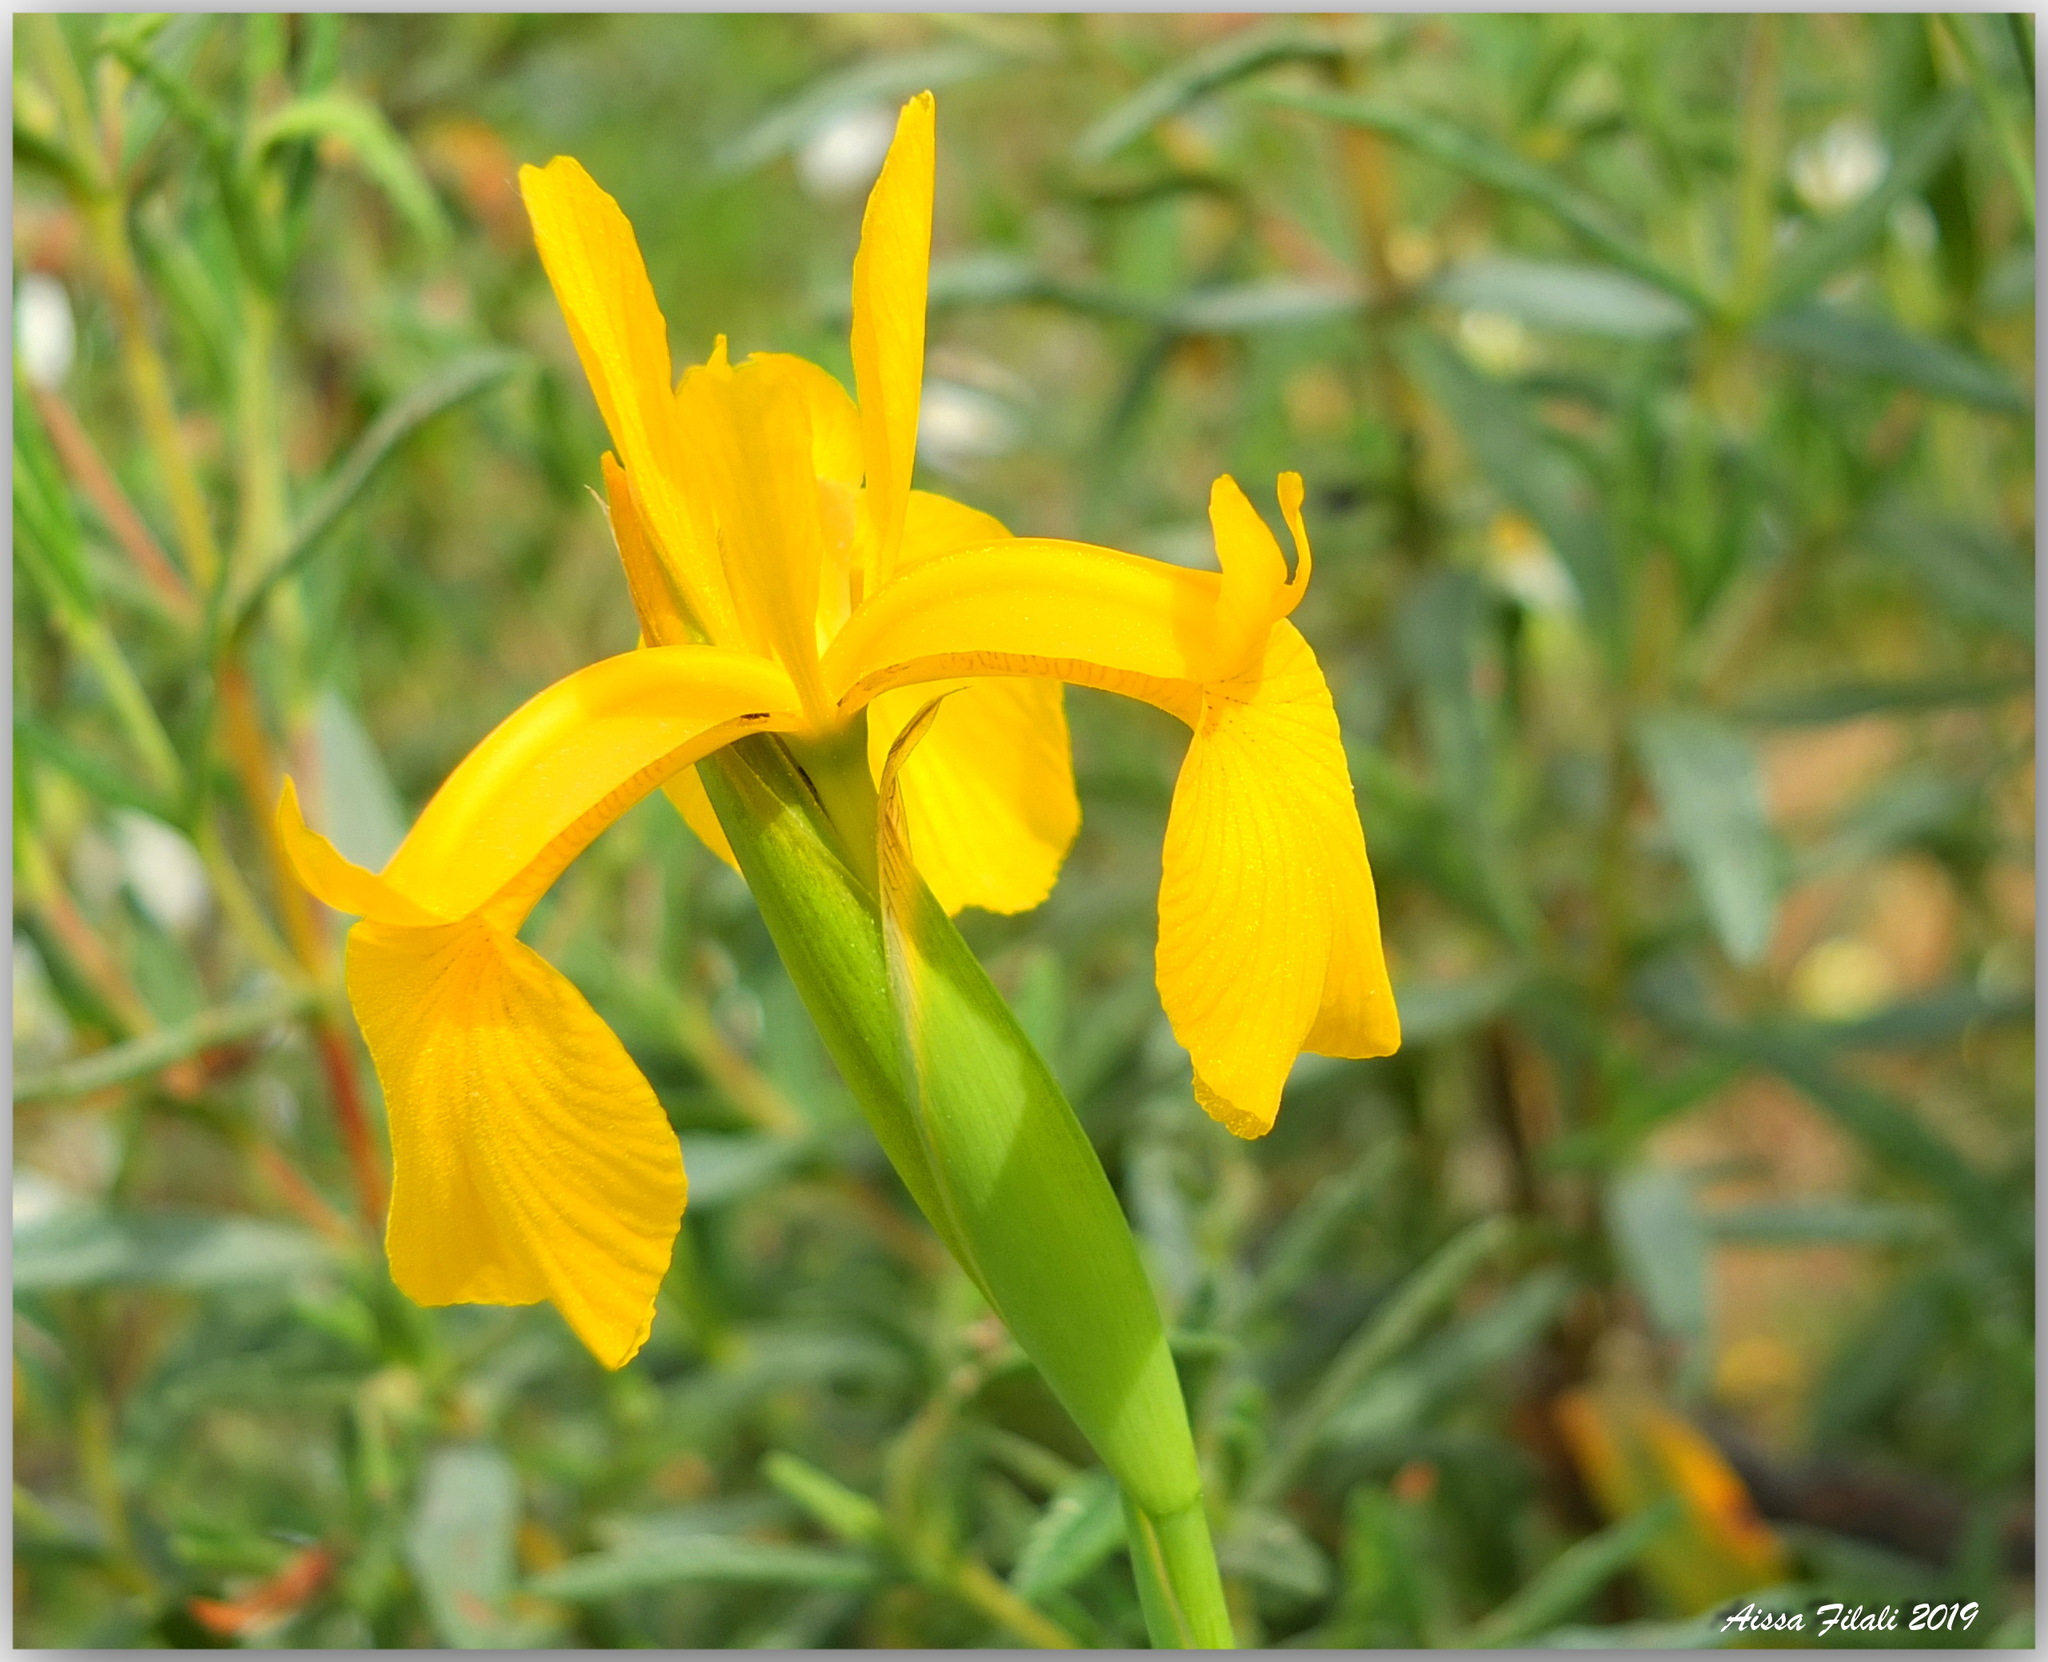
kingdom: Plantae
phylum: Tracheophyta
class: Liliopsida
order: Asparagales
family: Iridaceae
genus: Iris
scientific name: Iris juncea
